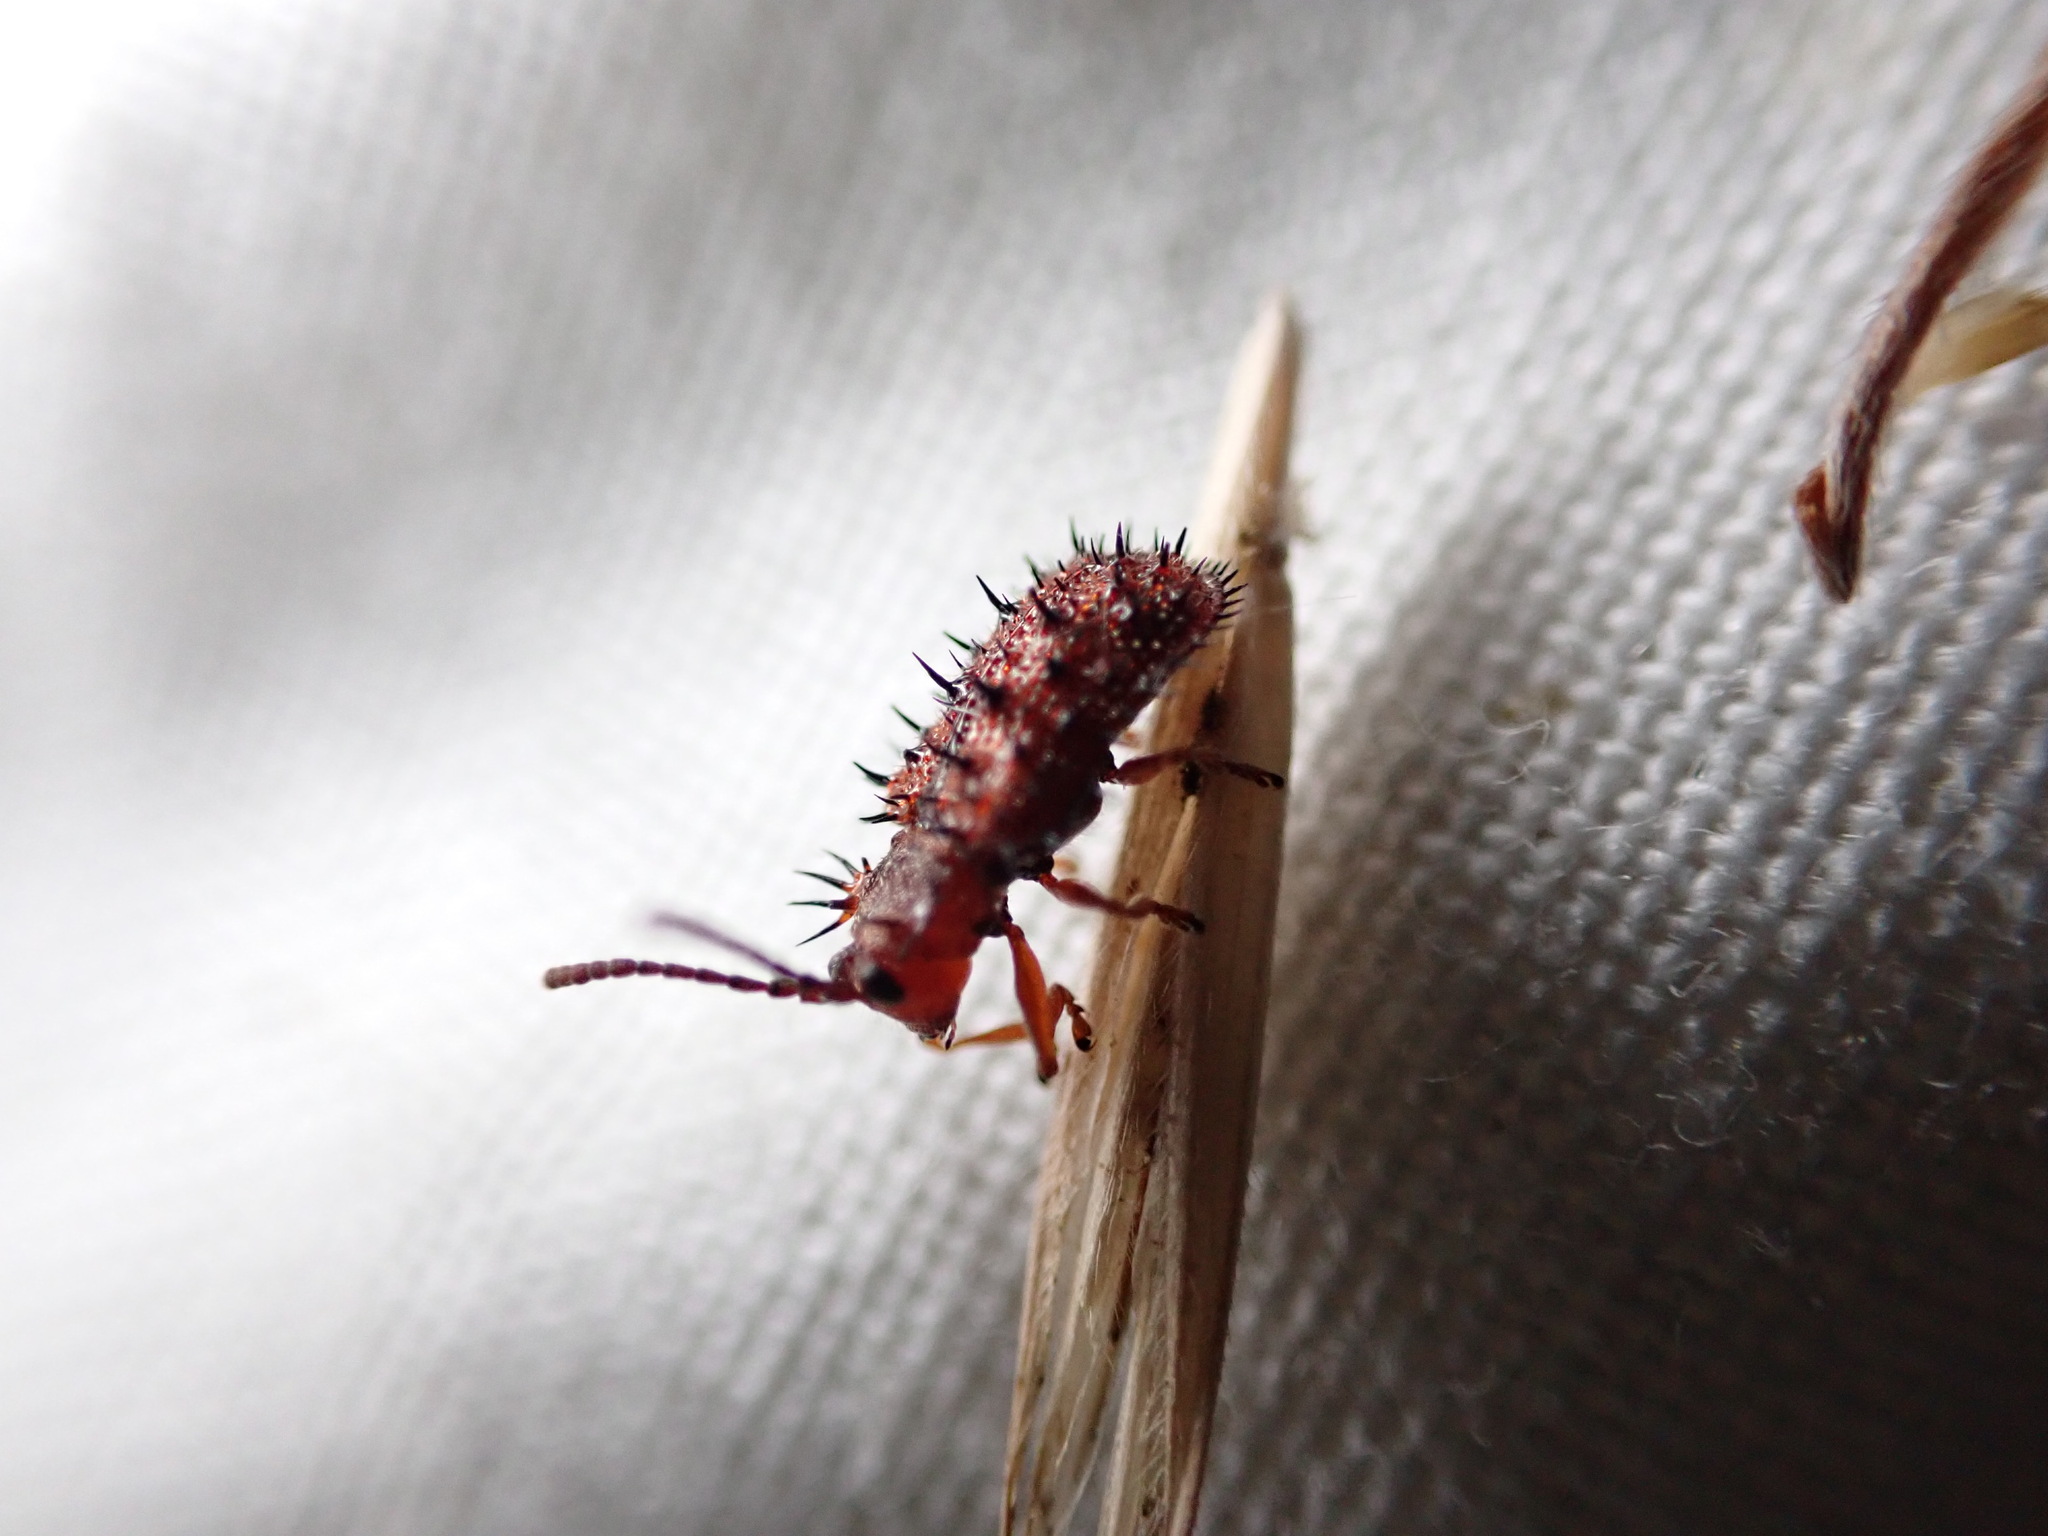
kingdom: Animalia
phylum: Arthropoda
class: Insecta
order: Coleoptera
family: Chrysomelidae
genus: Dicladispa
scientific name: Dicladispa testacea
